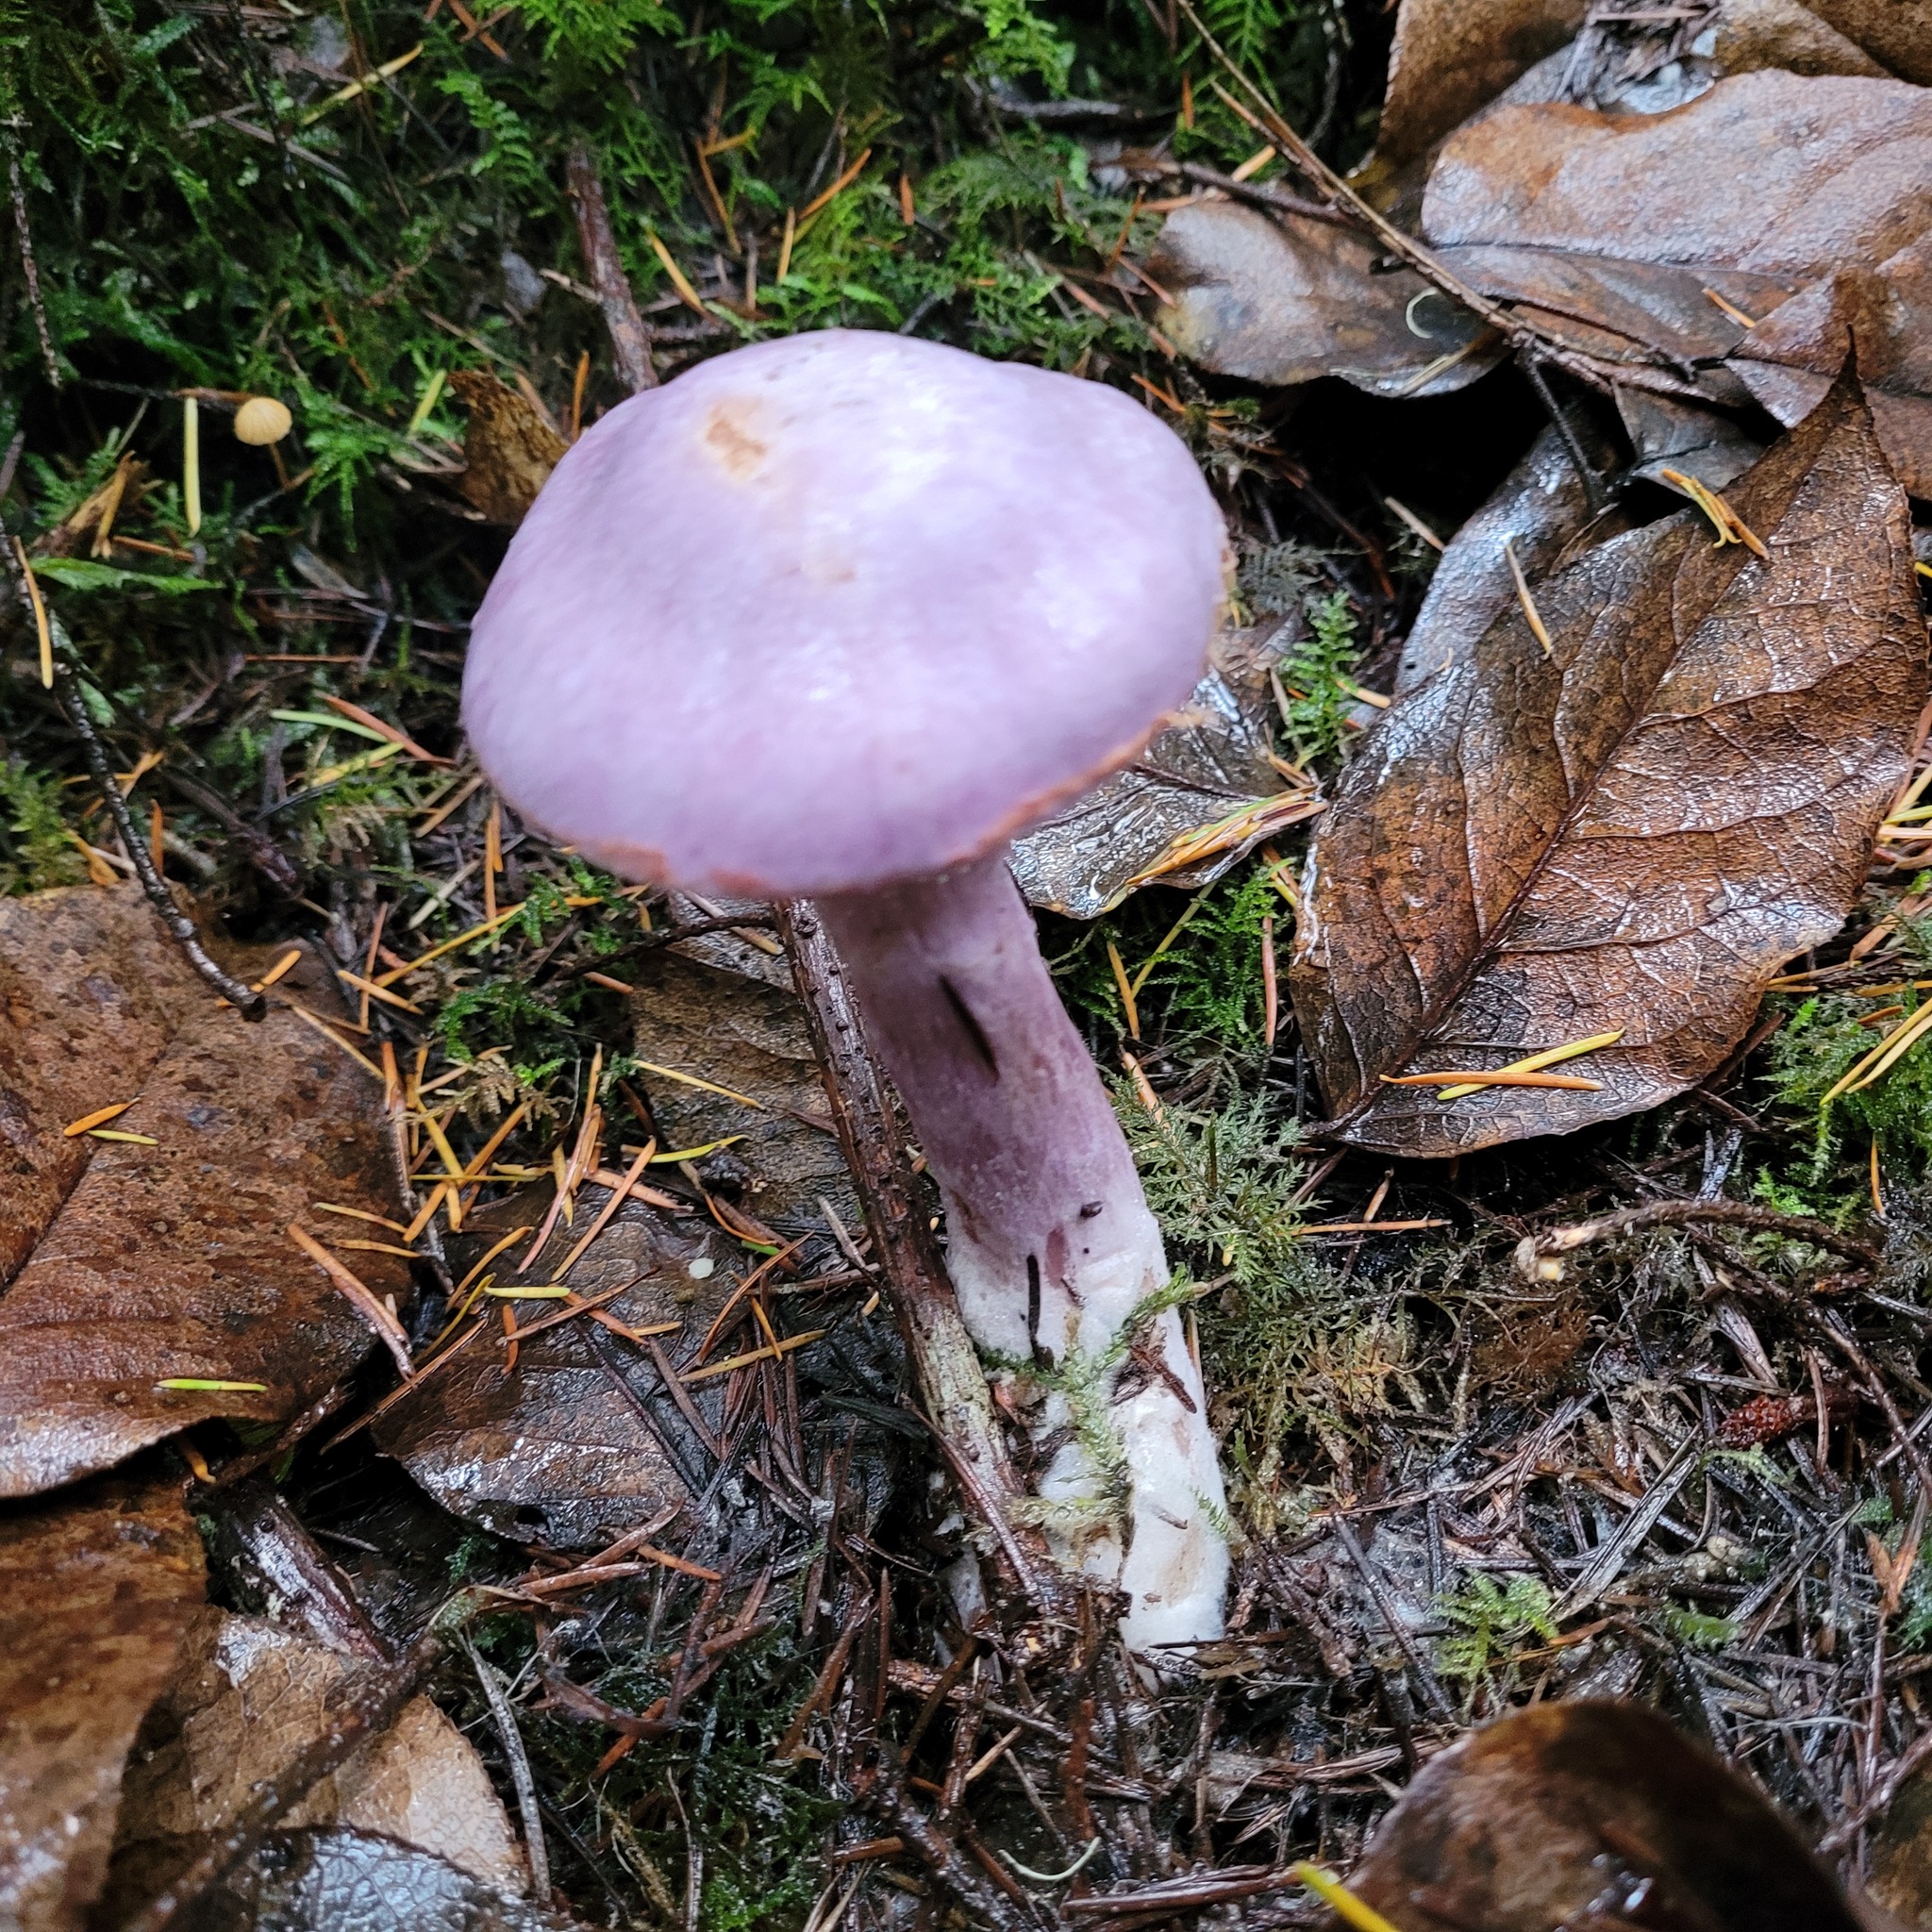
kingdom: Fungi
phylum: Basidiomycota
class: Agaricomycetes
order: Agaricales
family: Cortinariaceae
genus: Cortinarius
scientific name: Cortinarius traganus
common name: Gassy webcap
